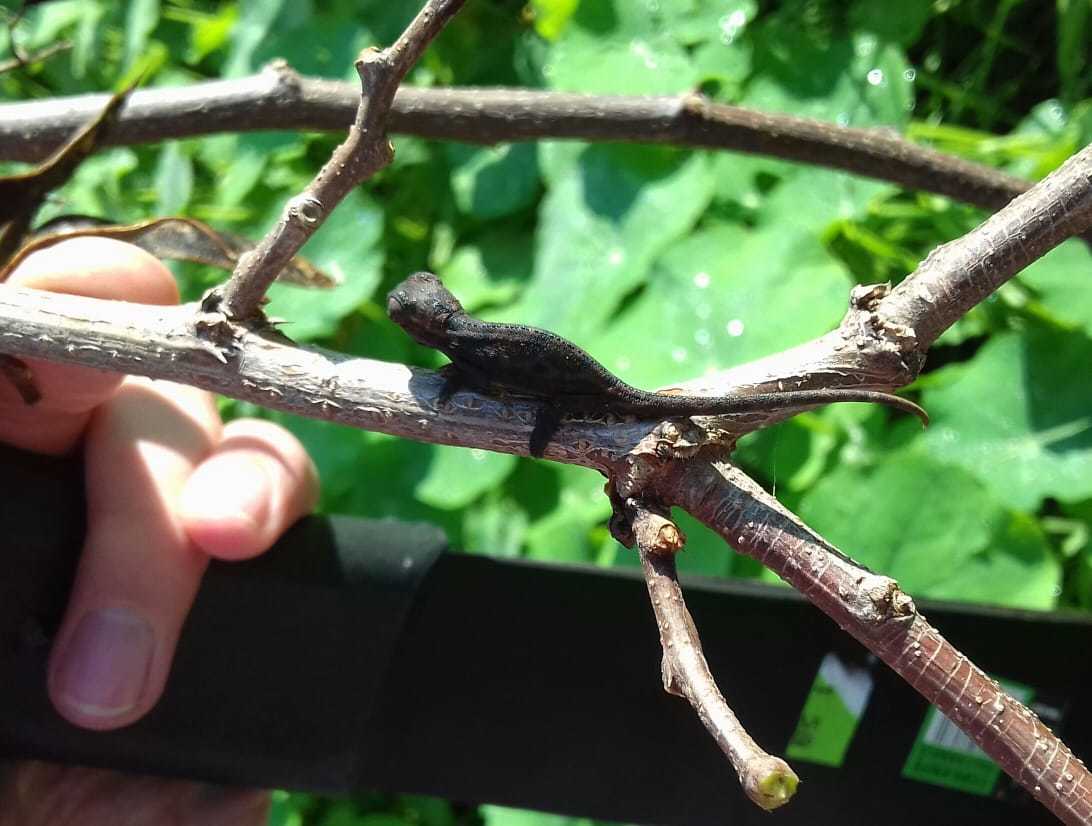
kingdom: Animalia
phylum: Chordata
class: Squamata
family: Chamaeleonidae
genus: Bradypodion
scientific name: Bradypodion pumilum
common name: Cape dwarf chameleon
